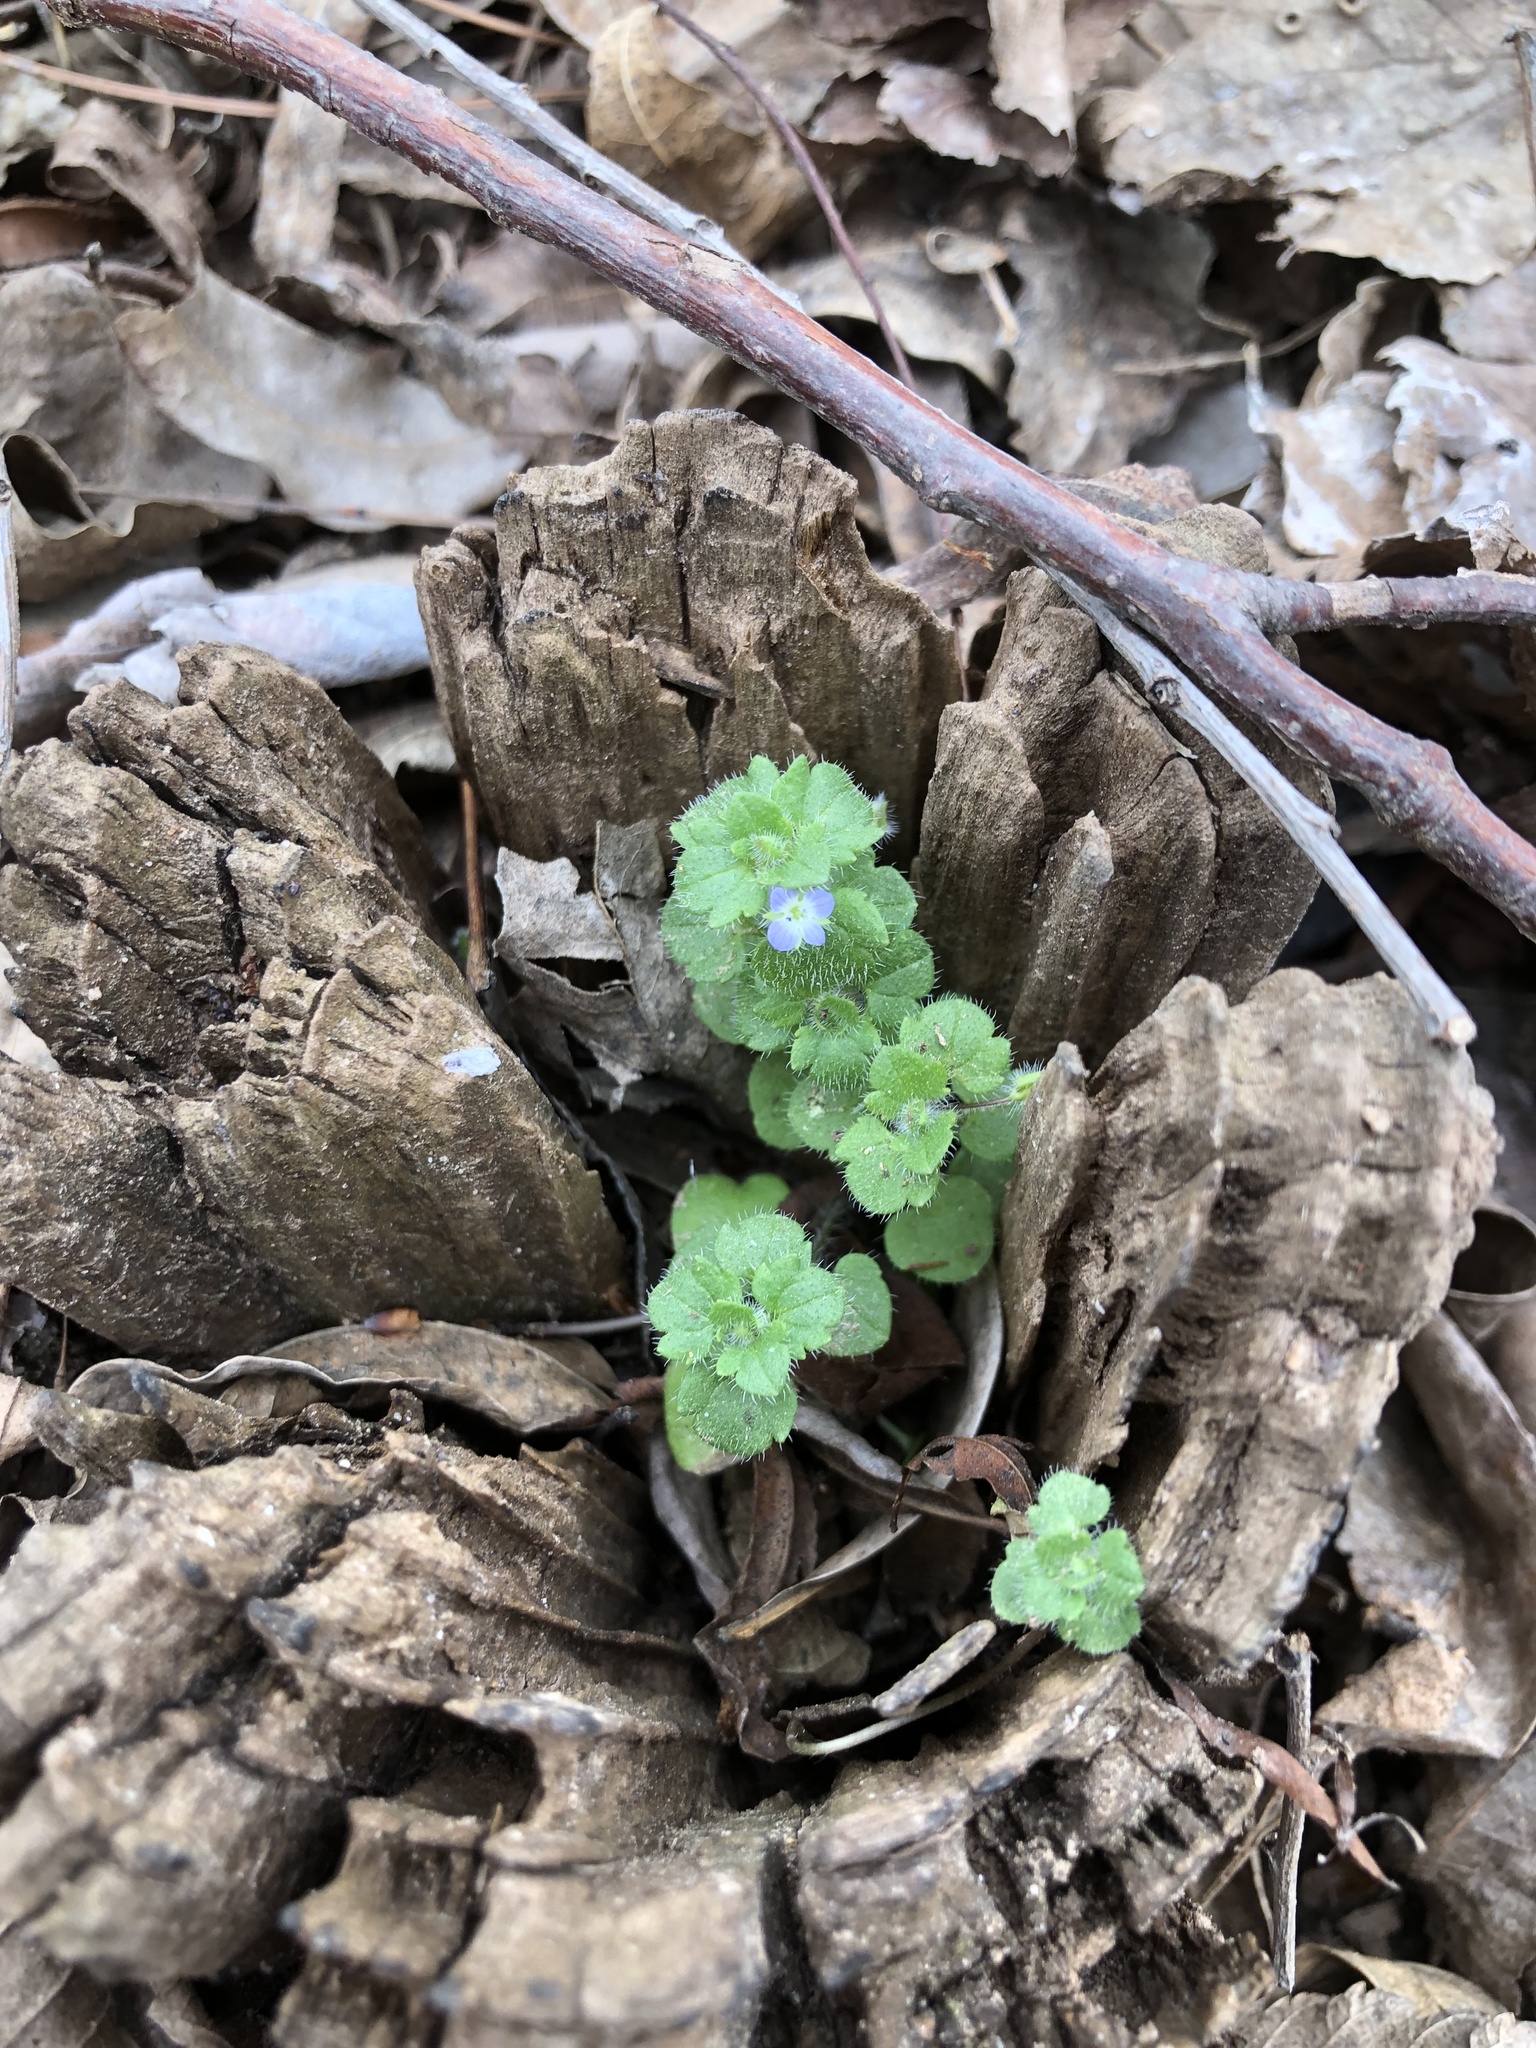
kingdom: Plantae
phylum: Tracheophyta
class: Magnoliopsida
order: Lamiales
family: Plantaginaceae
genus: Veronica
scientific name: Veronica hederifolia
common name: Ivy-leaved speedwell
